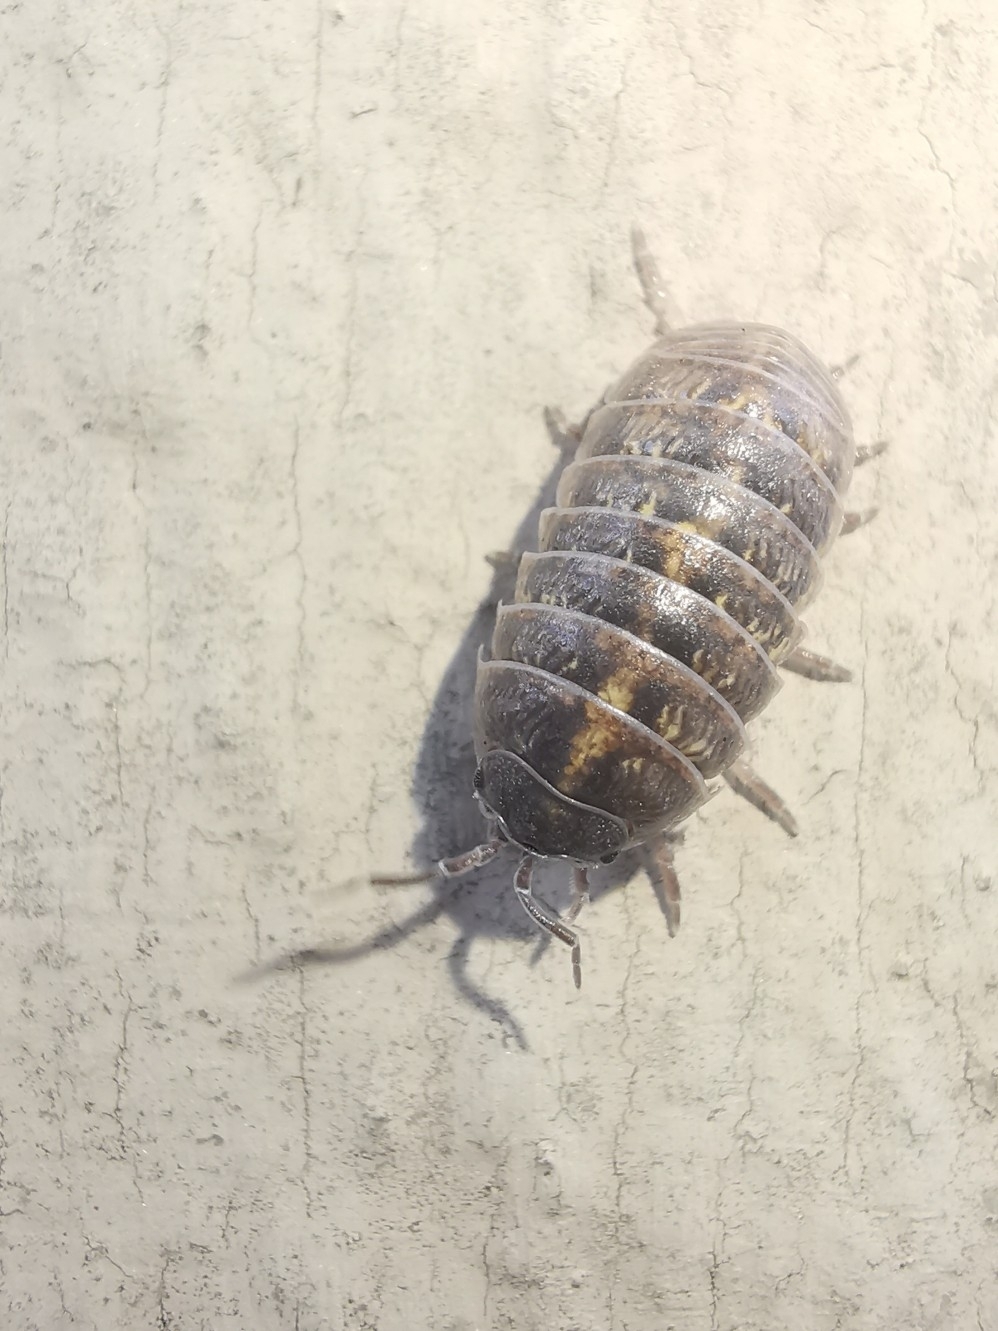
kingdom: Animalia
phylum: Arthropoda
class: Malacostraca
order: Isopoda
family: Armadillidiidae
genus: Armadillidium
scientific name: Armadillidium vulgare
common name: Common pill woodlouse
